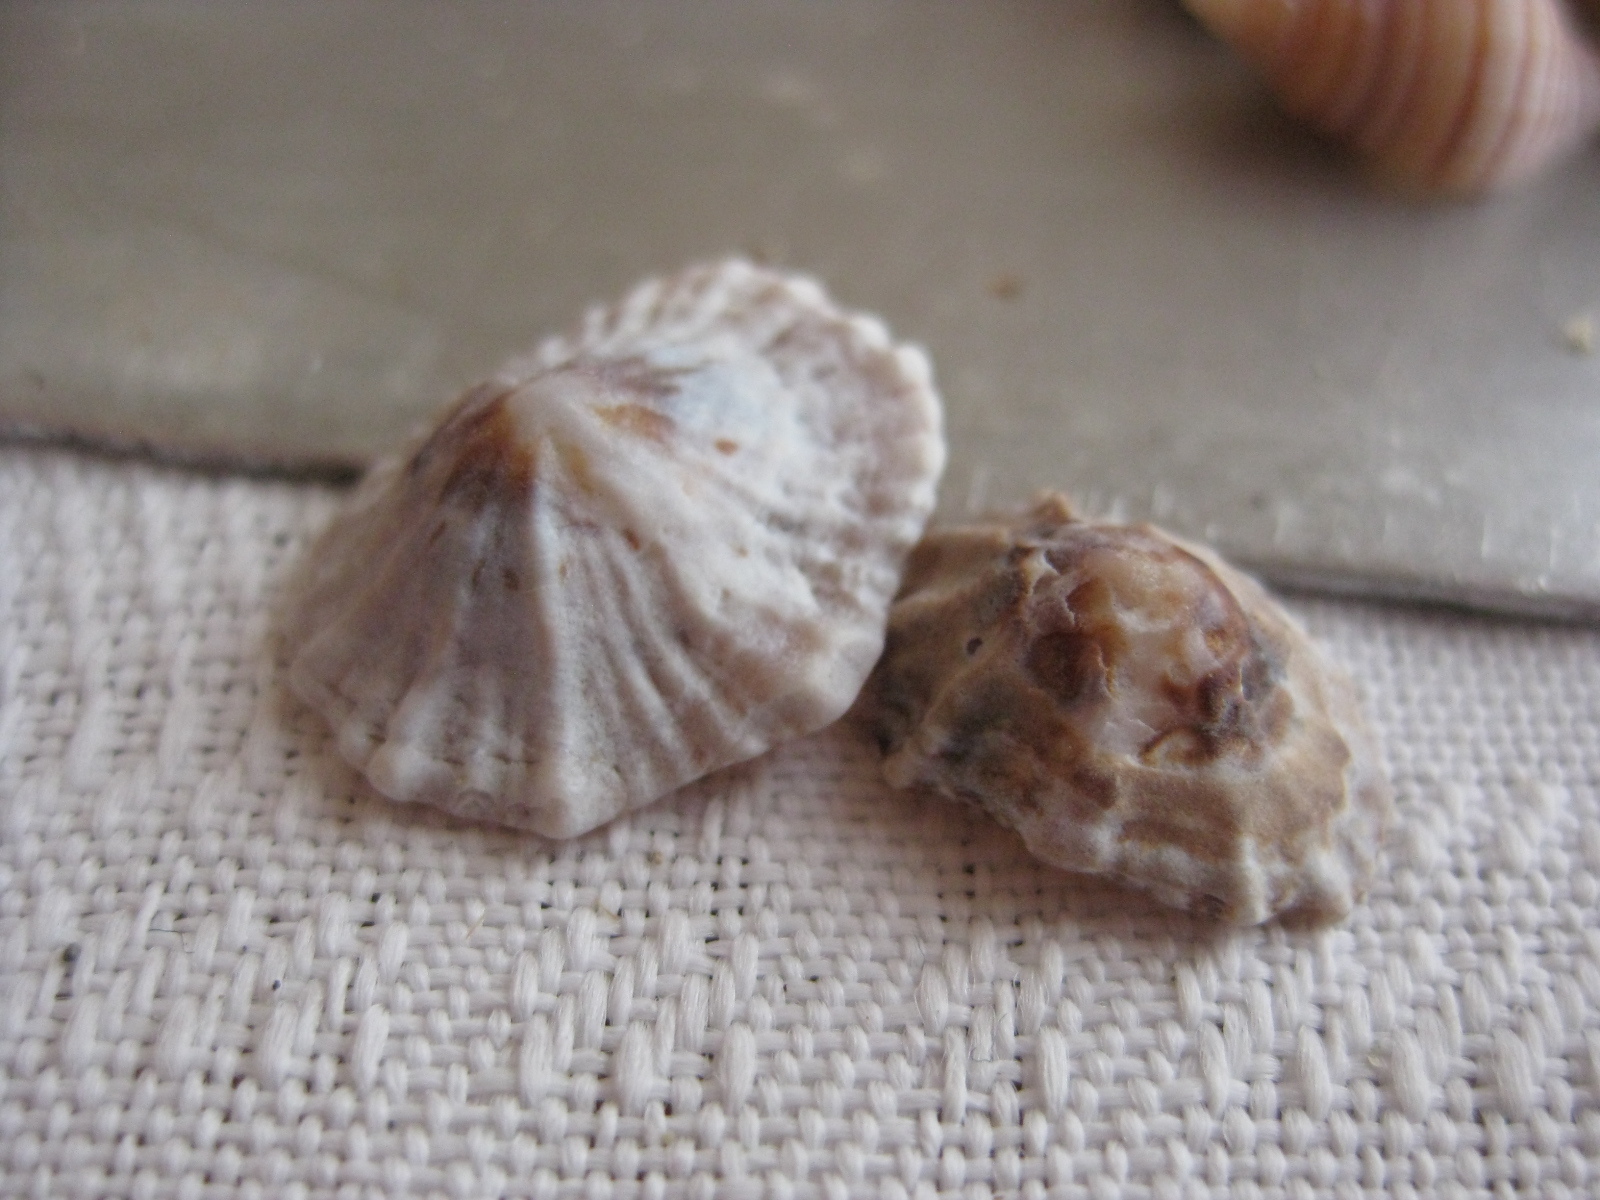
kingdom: Animalia
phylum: Mollusca
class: Gastropoda
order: Siphonariida
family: Siphonariidae
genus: Siphonaria
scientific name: Siphonaria australis
